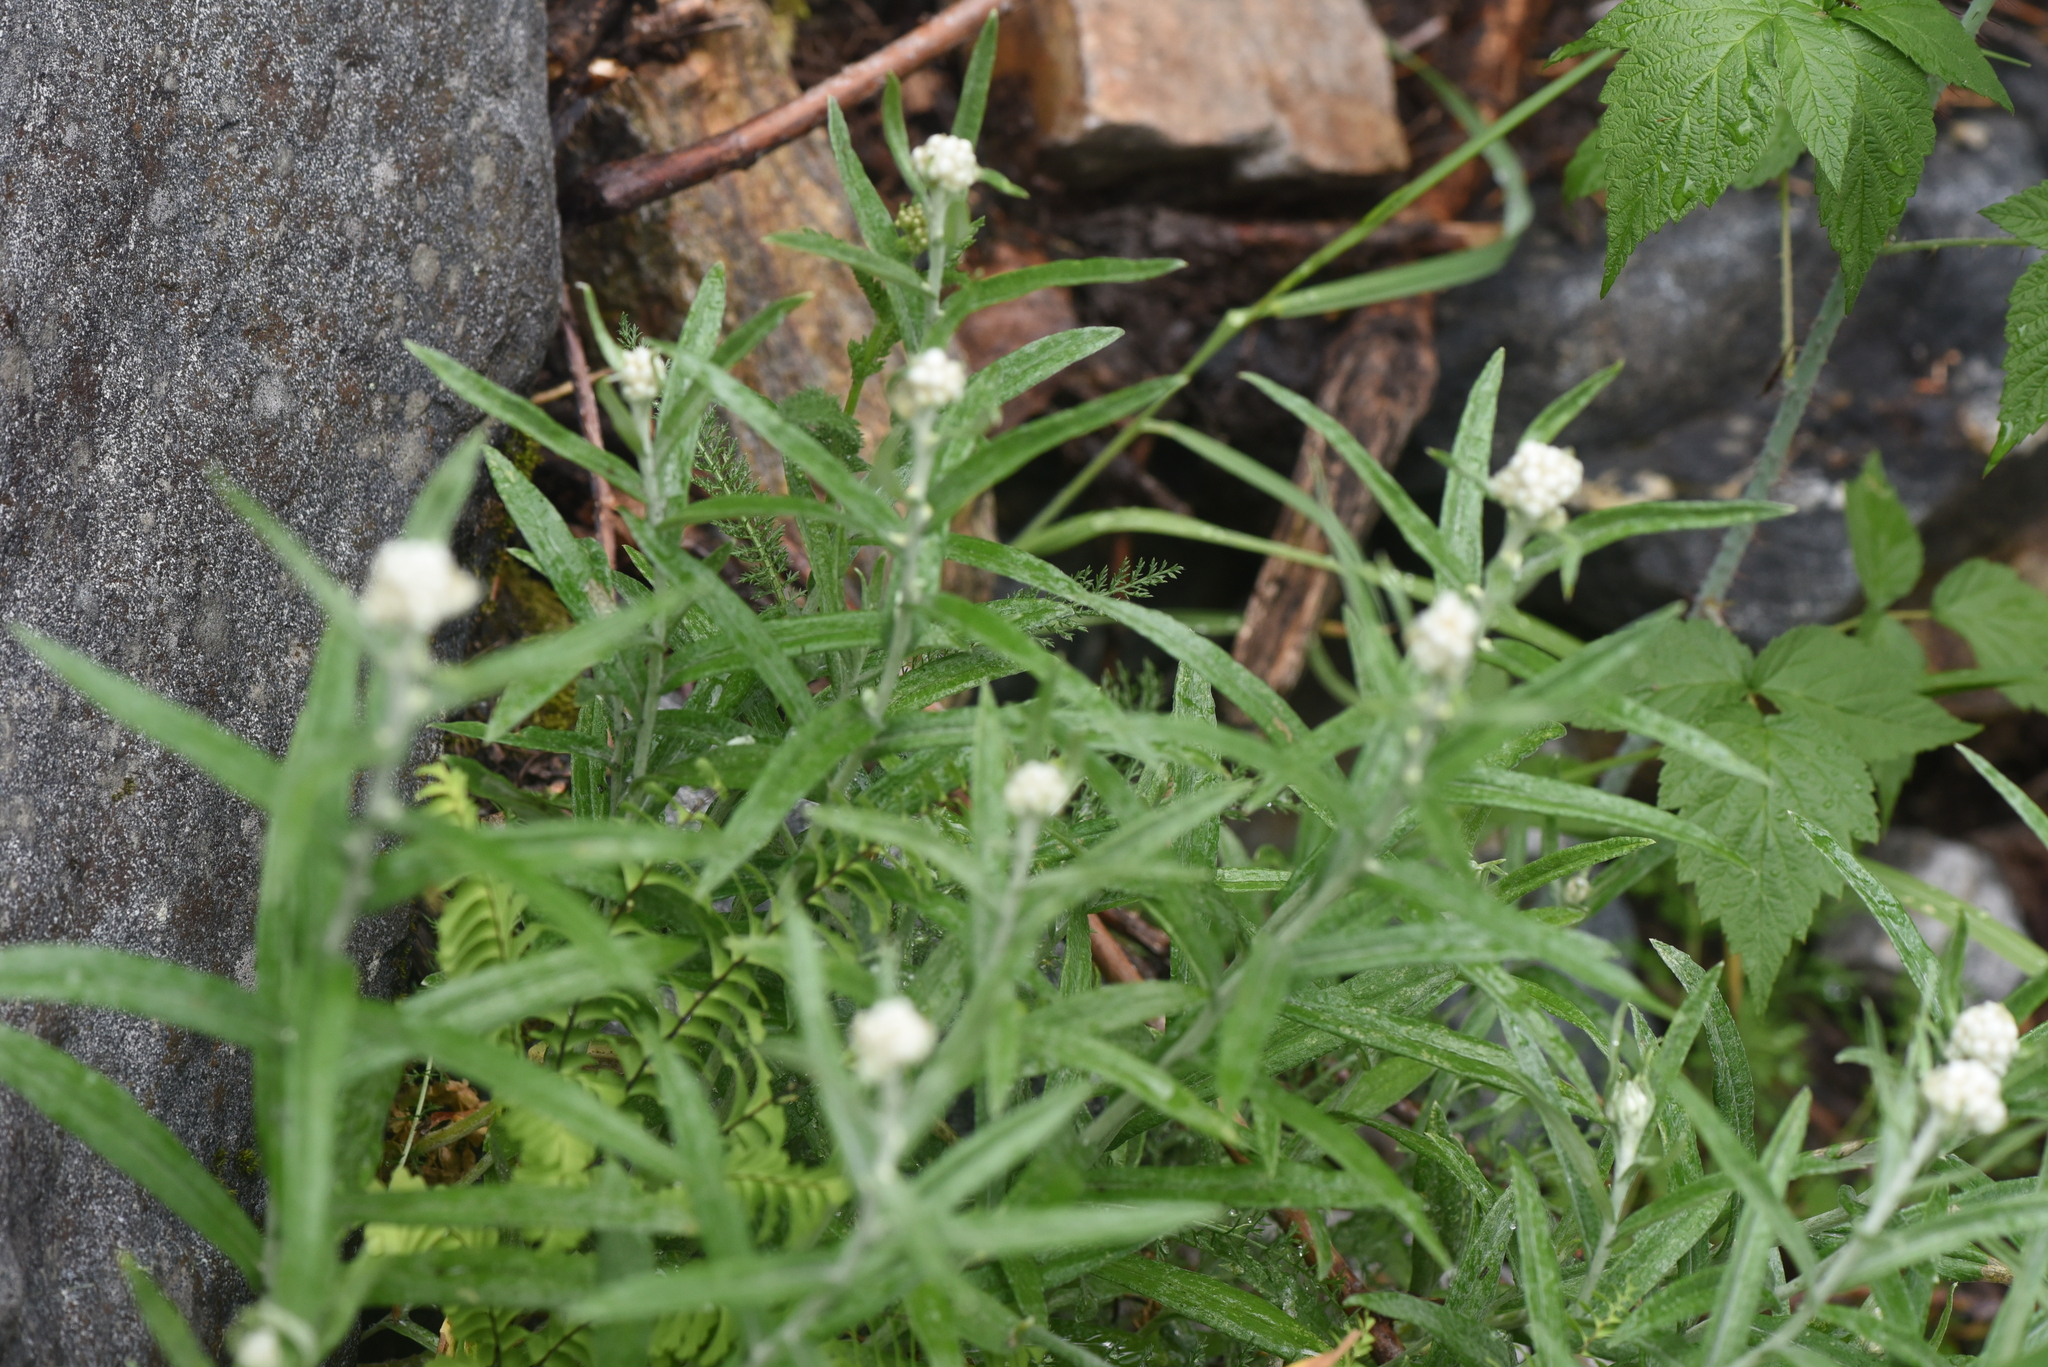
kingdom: Plantae
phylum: Tracheophyta
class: Magnoliopsida
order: Asterales
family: Asteraceae
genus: Anaphalis
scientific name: Anaphalis margaritacea
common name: Pearly everlasting
